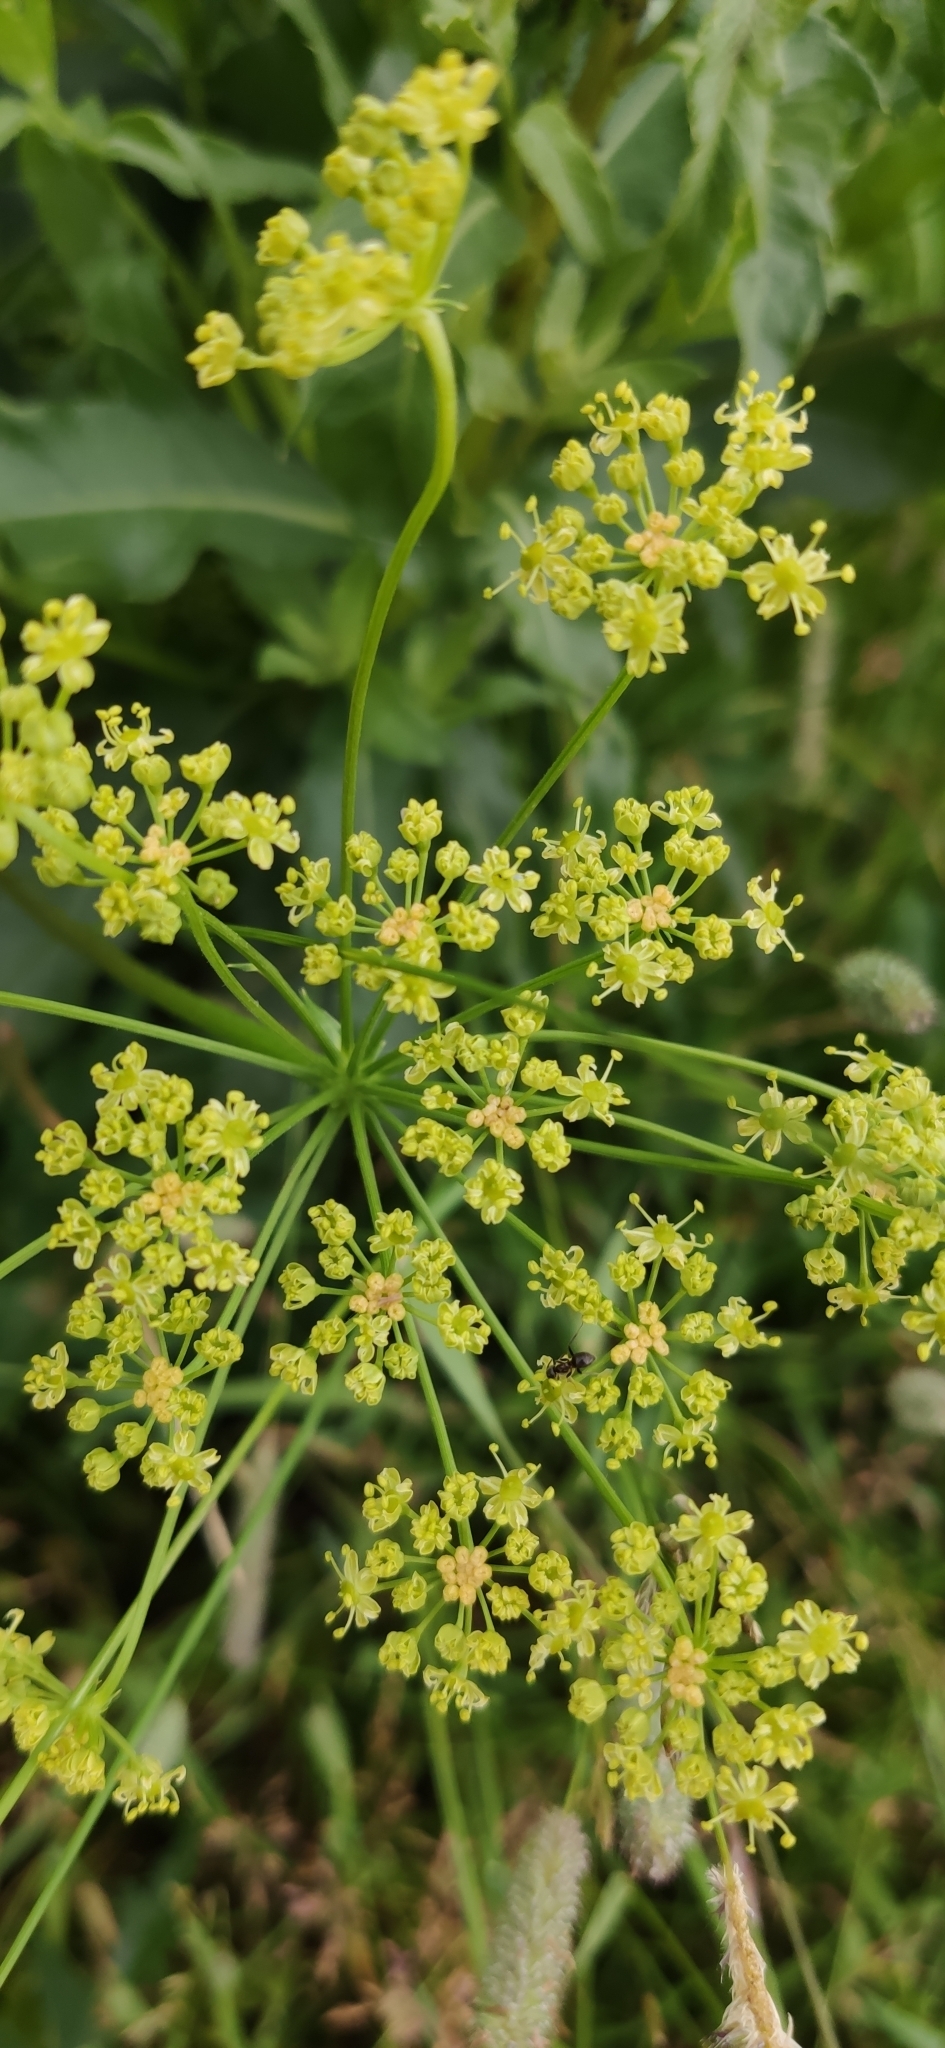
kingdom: Plantae
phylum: Tracheophyta
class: Magnoliopsida
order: Apiales
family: Apiaceae
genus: Heracleum
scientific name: Heracleum sphondylium
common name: Hogweed
